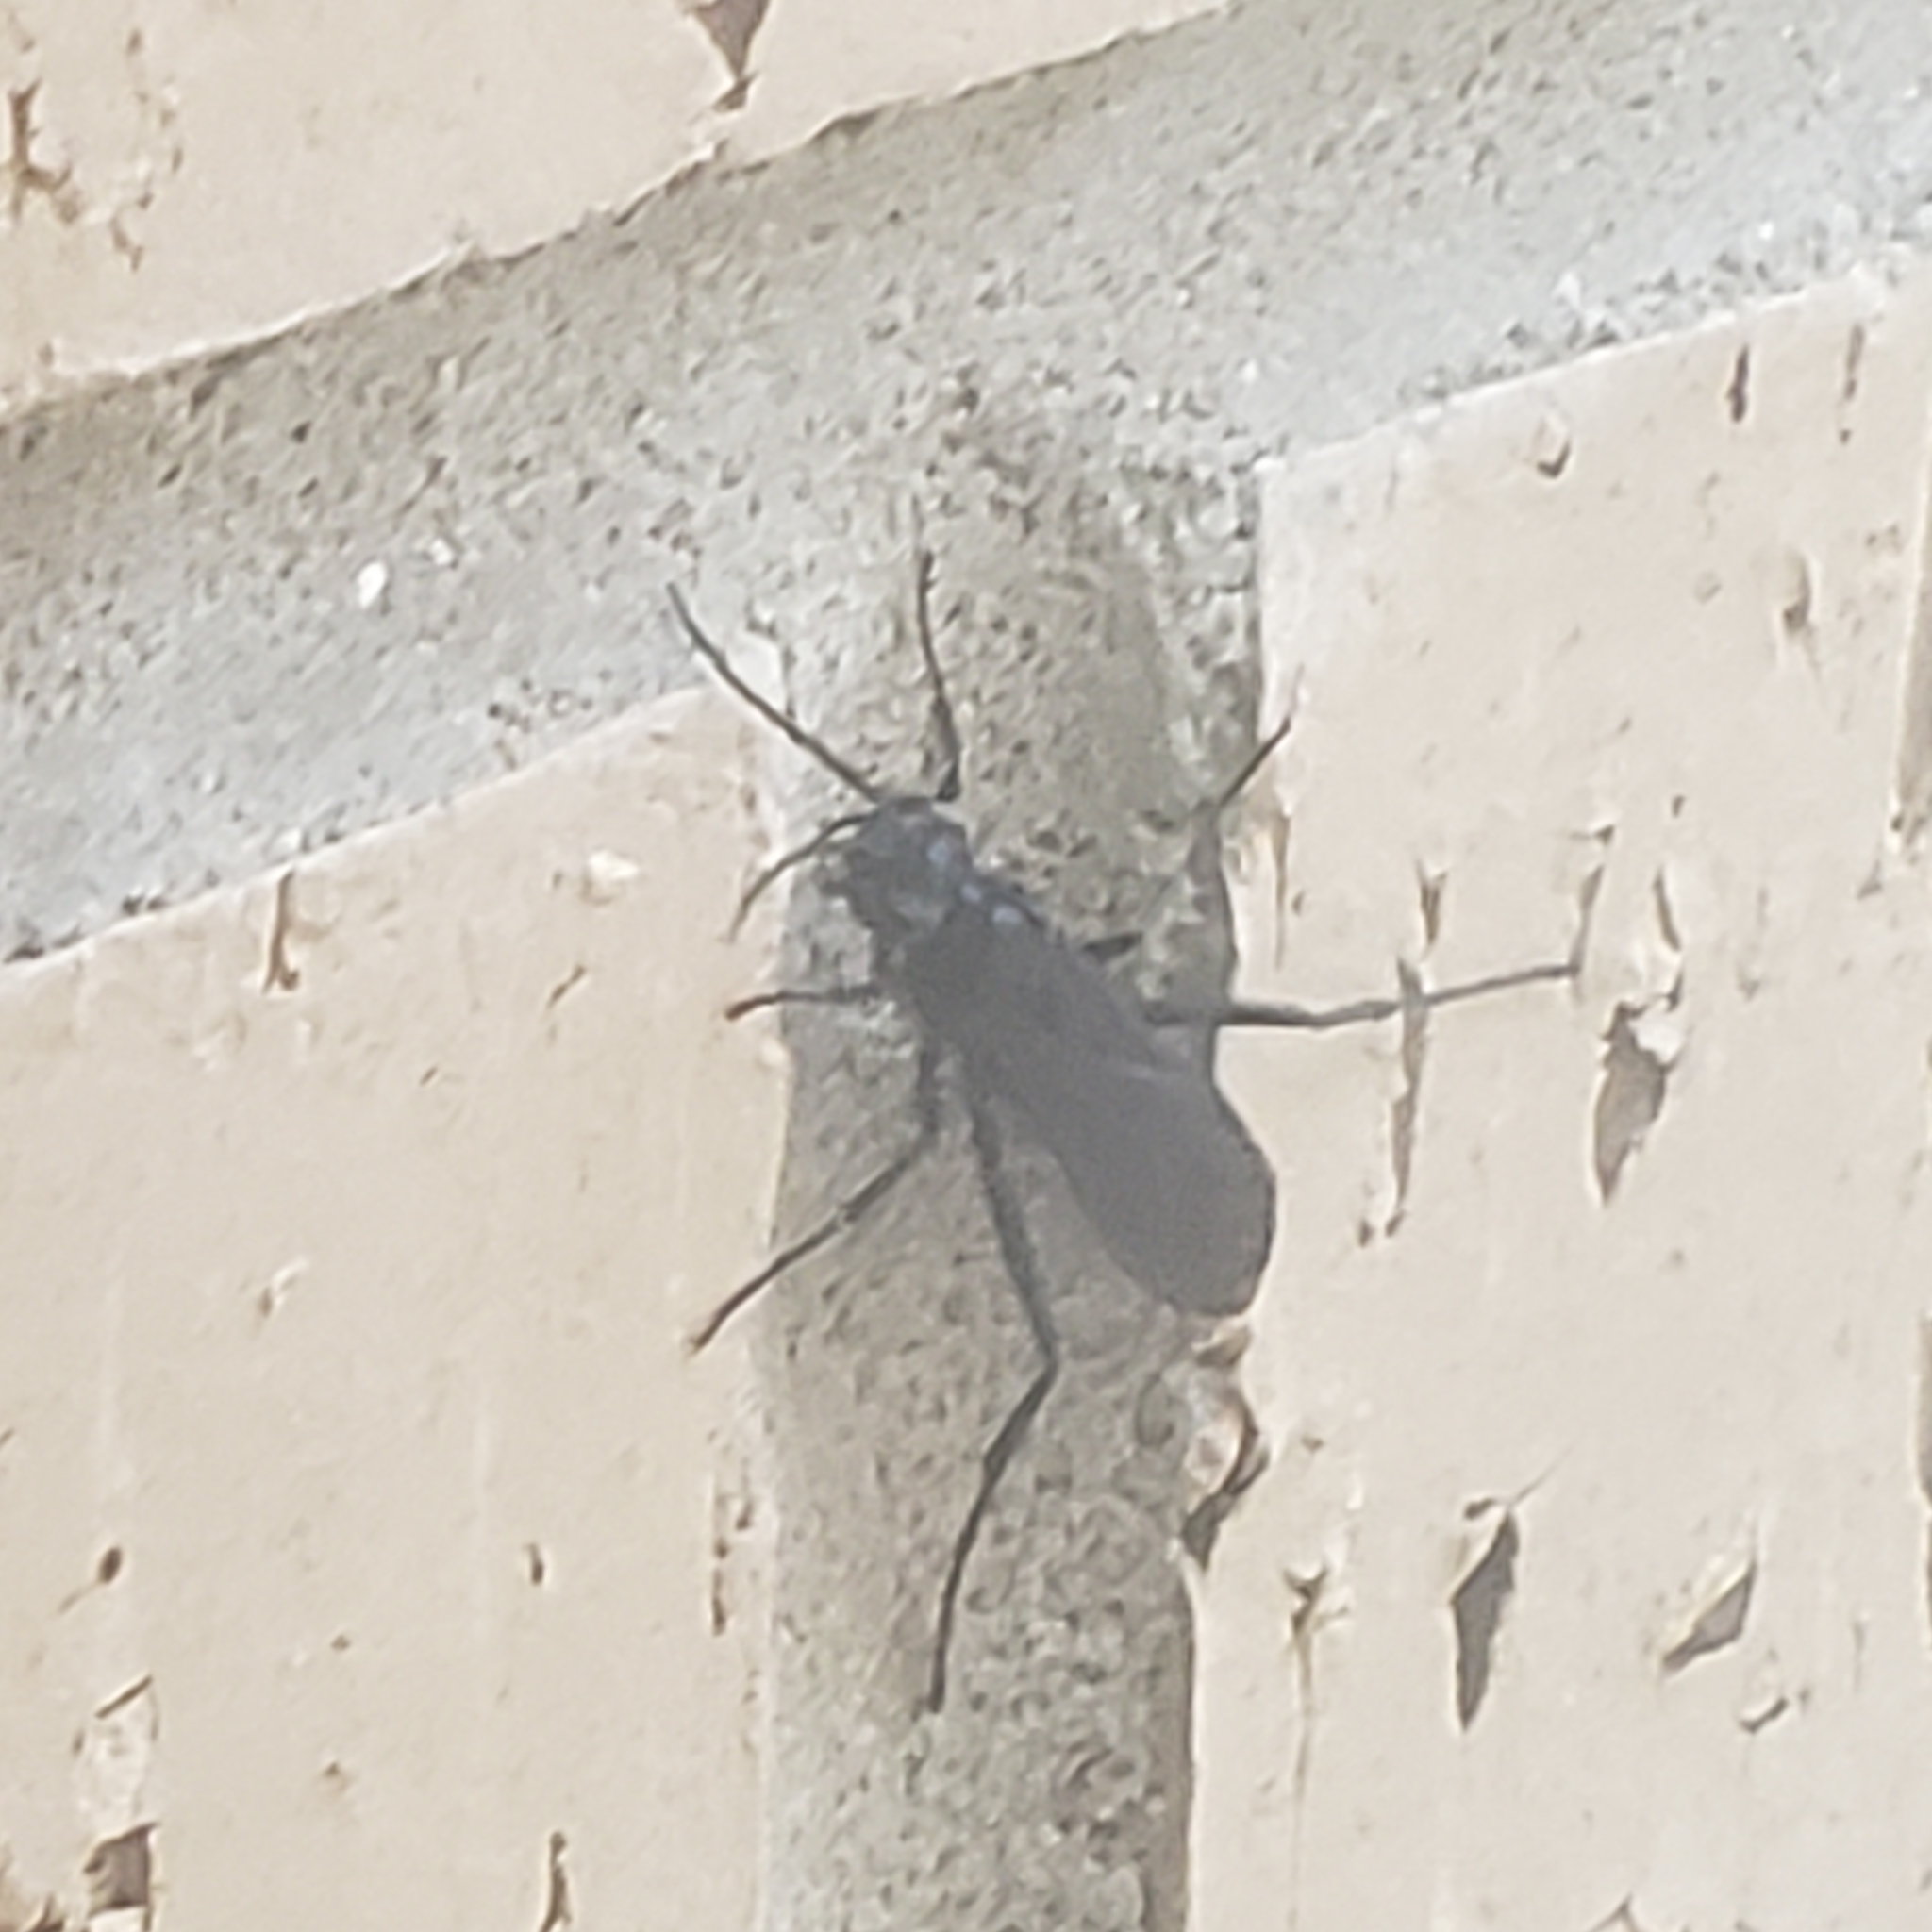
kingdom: Animalia
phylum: Arthropoda
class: Insecta
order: Hymenoptera
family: Sphecidae
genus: Chalybion
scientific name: Chalybion californicum
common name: Mud dauber
